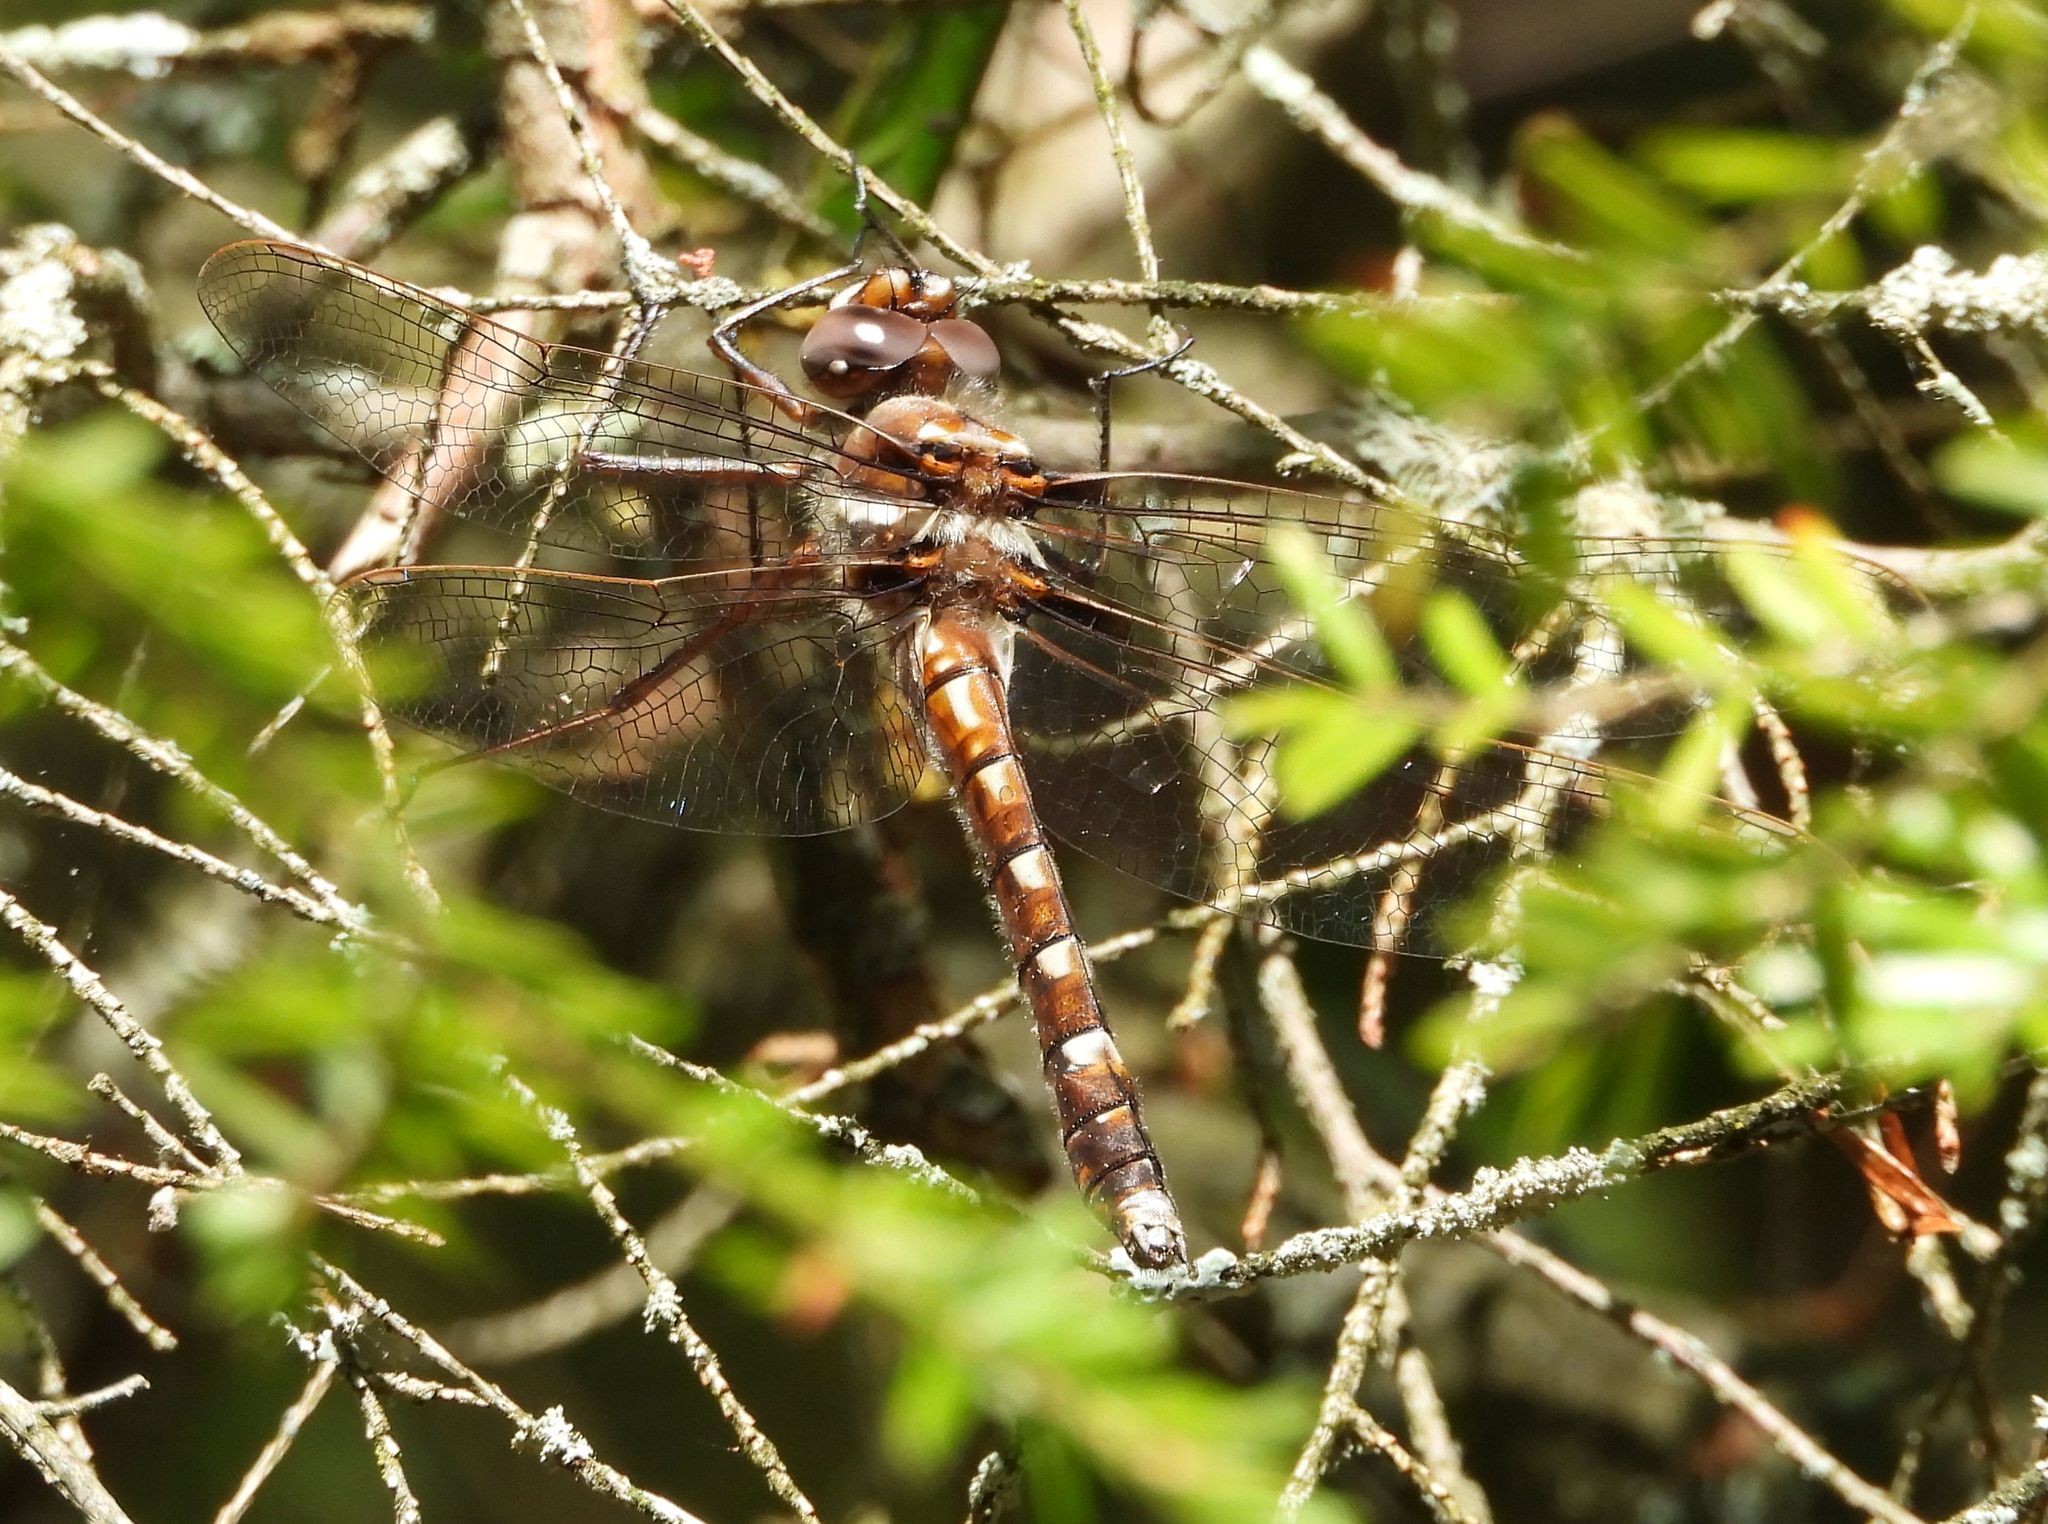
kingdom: Animalia
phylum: Arthropoda
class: Insecta
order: Odonata
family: Macromiidae
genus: Didymops
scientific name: Didymops transversa
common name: Stream cruiser
